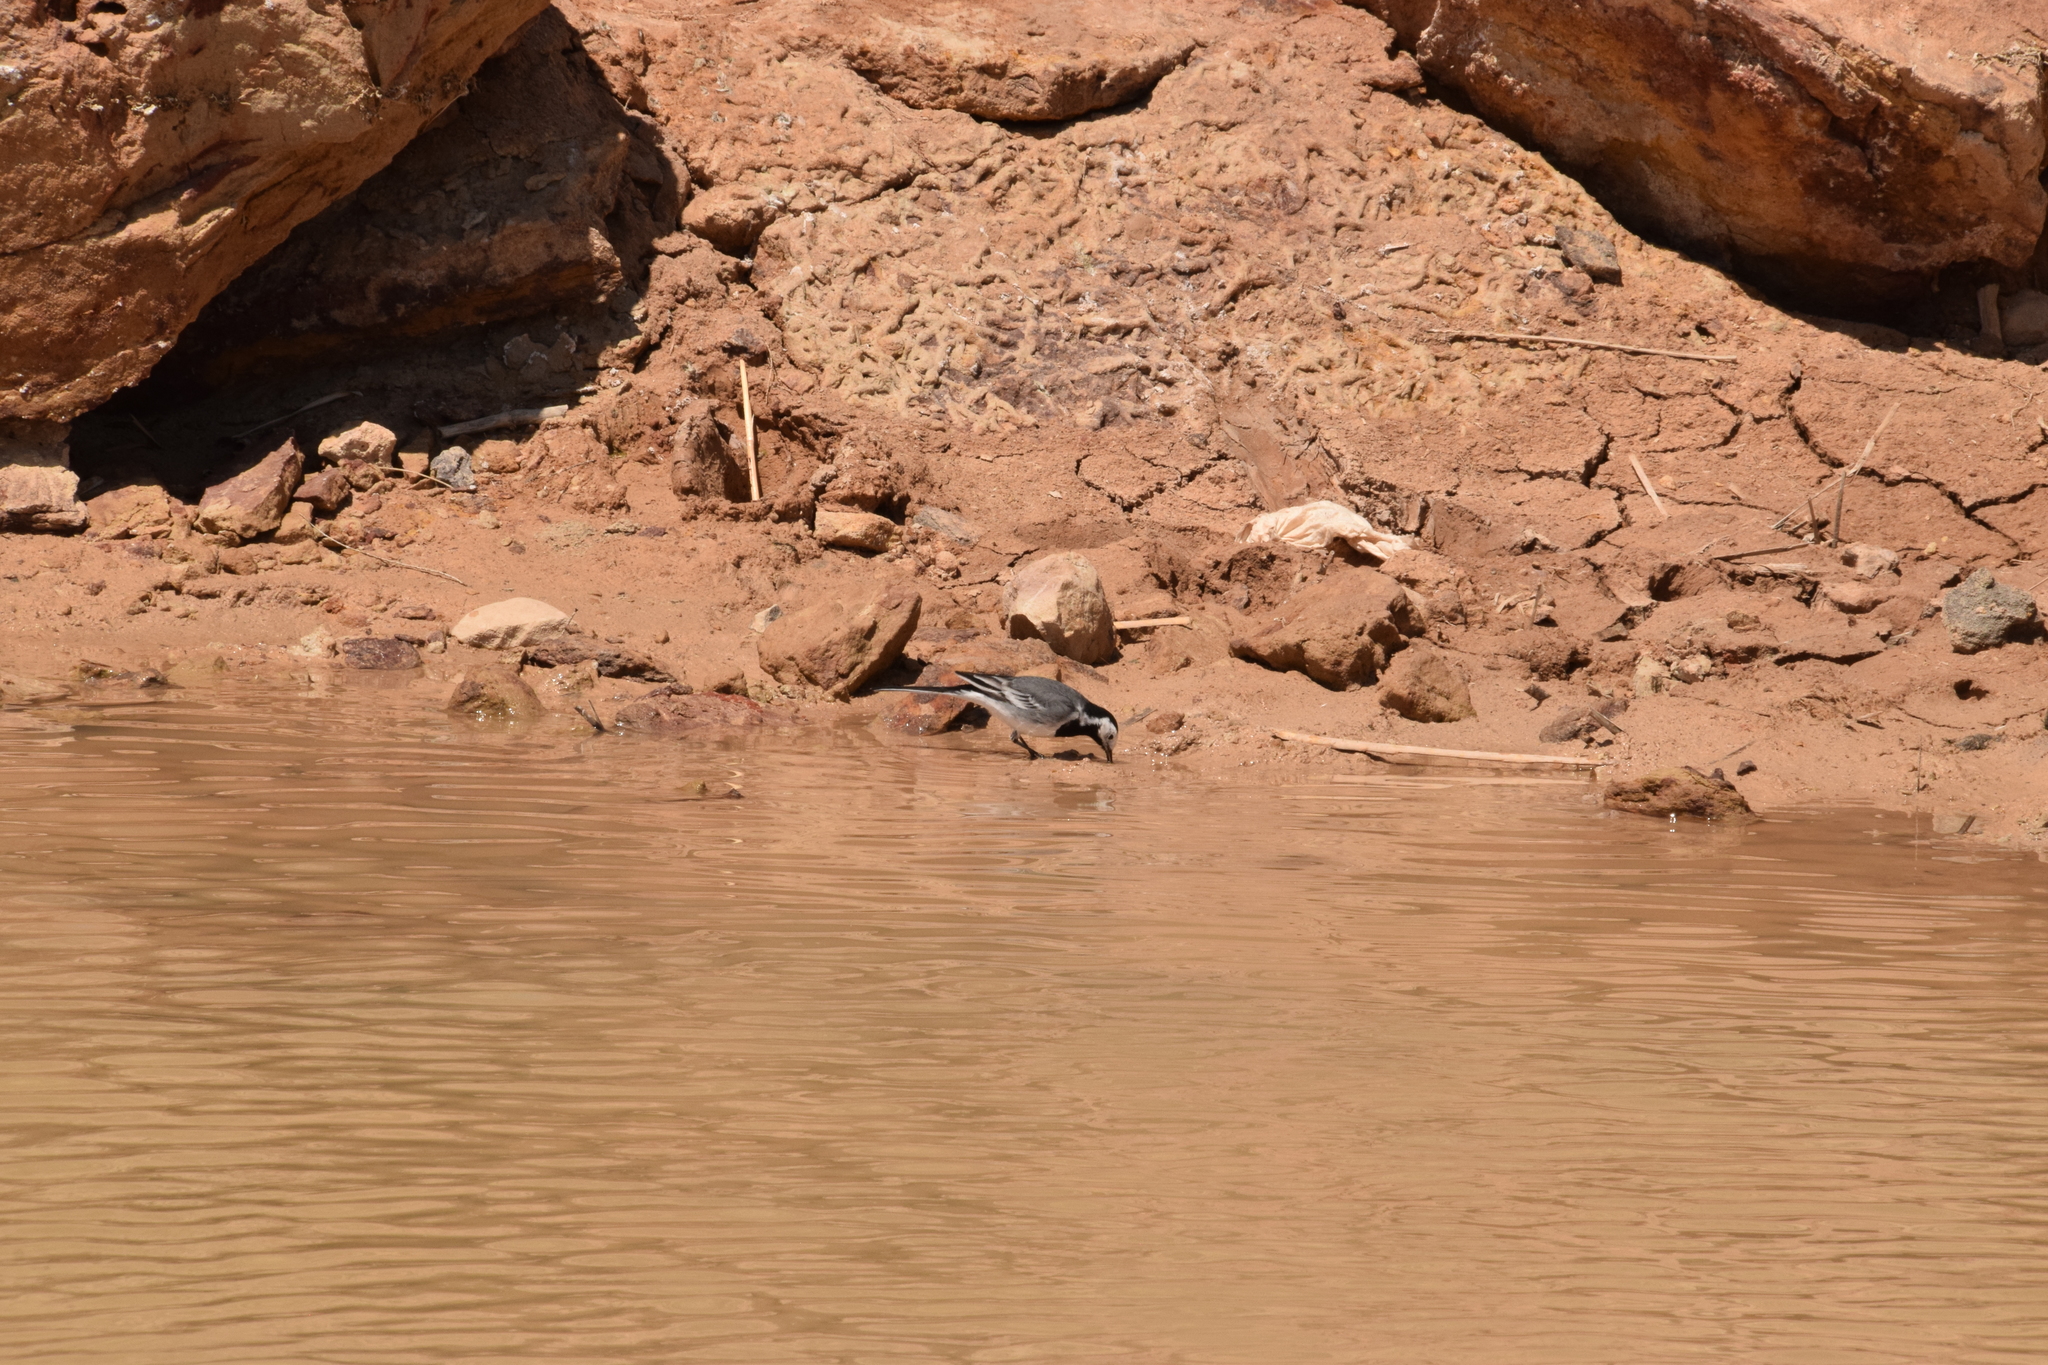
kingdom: Animalia
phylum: Chordata
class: Aves
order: Passeriformes
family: Motacillidae
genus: Motacilla
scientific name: Motacilla alba
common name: White wagtail
